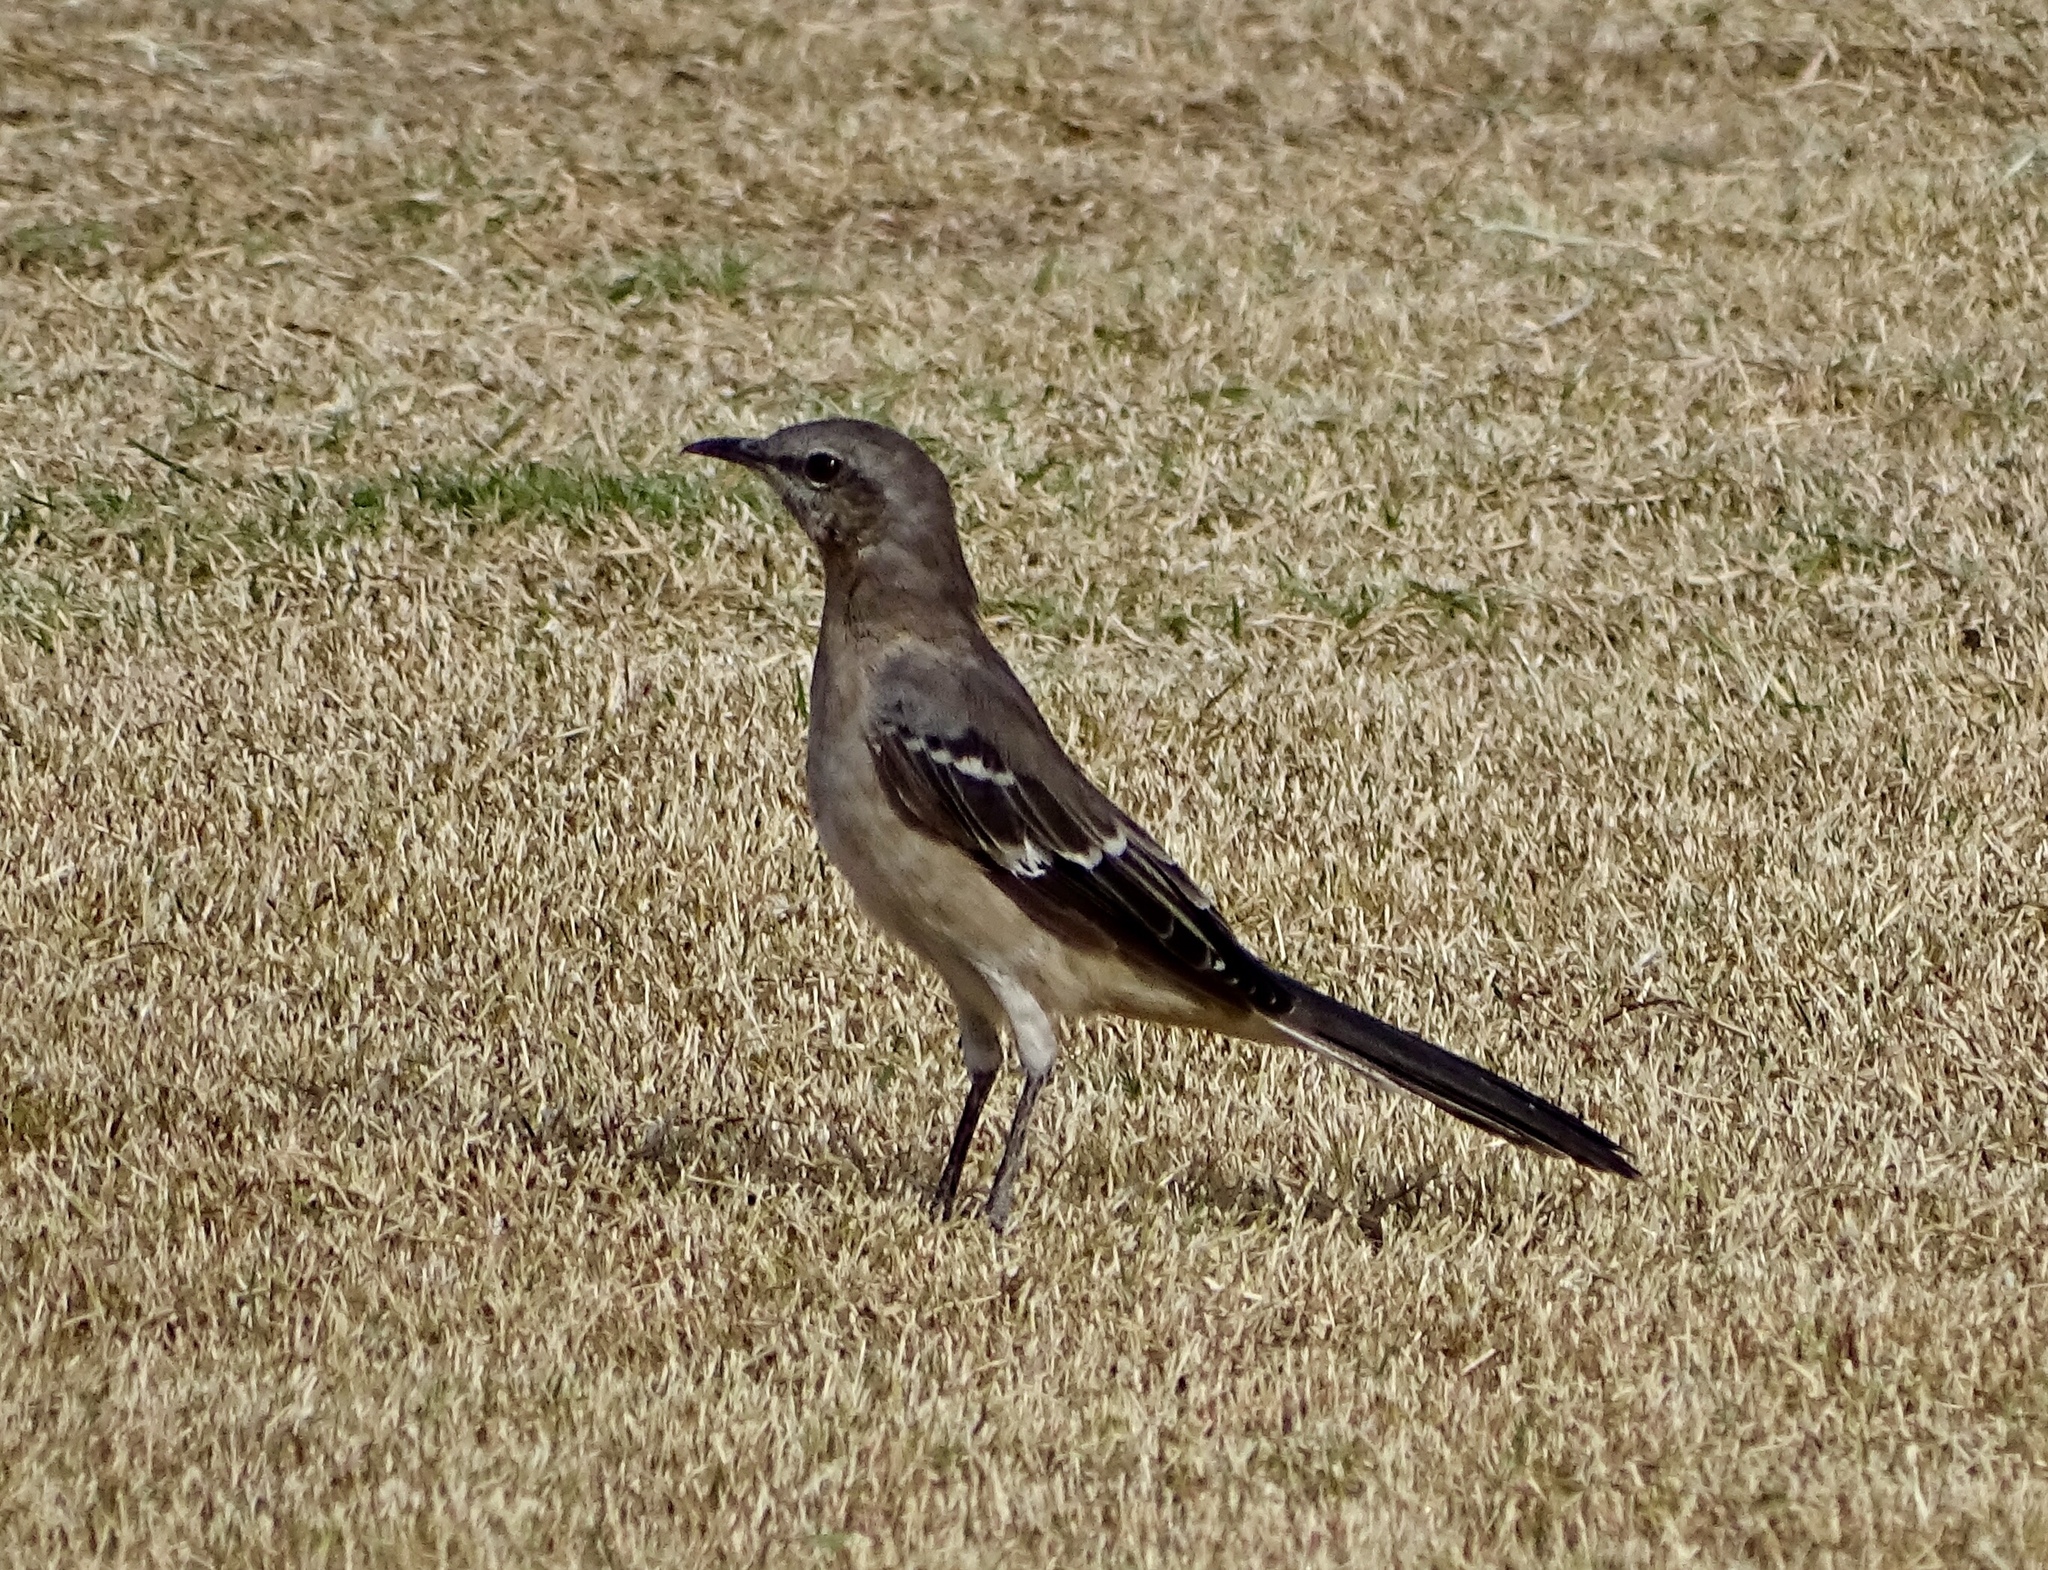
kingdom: Animalia
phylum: Chordata
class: Aves
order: Passeriformes
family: Mimidae
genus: Mimus
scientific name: Mimus polyglottos
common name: Northern mockingbird
